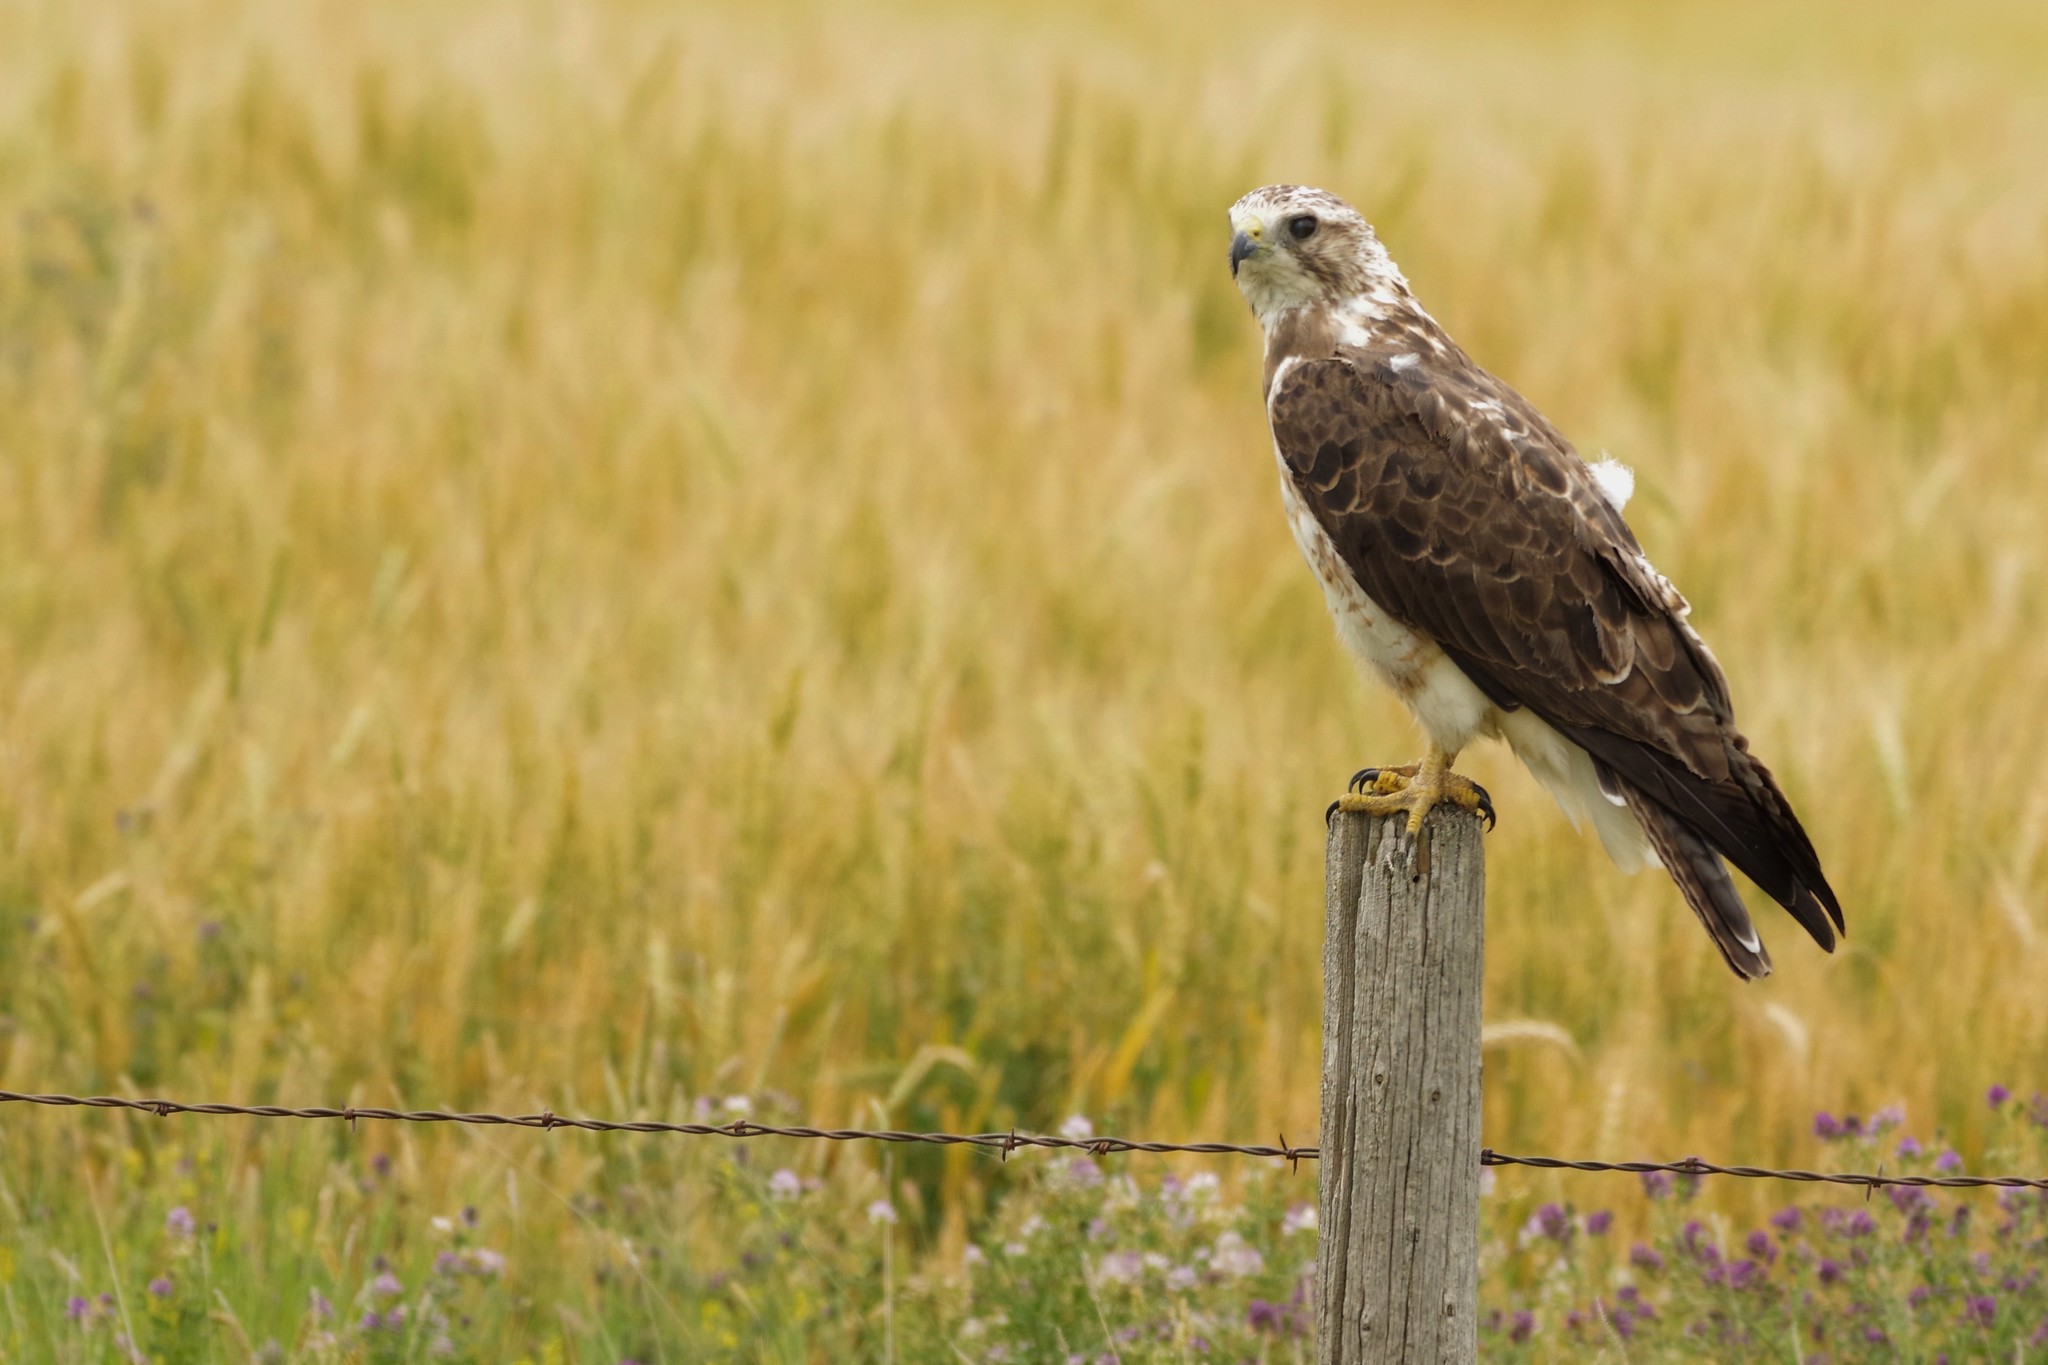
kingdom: Animalia
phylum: Chordata
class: Aves
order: Accipitriformes
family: Accipitridae
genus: Buteo
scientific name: Buteo swainsoni
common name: Swainson's hawk
